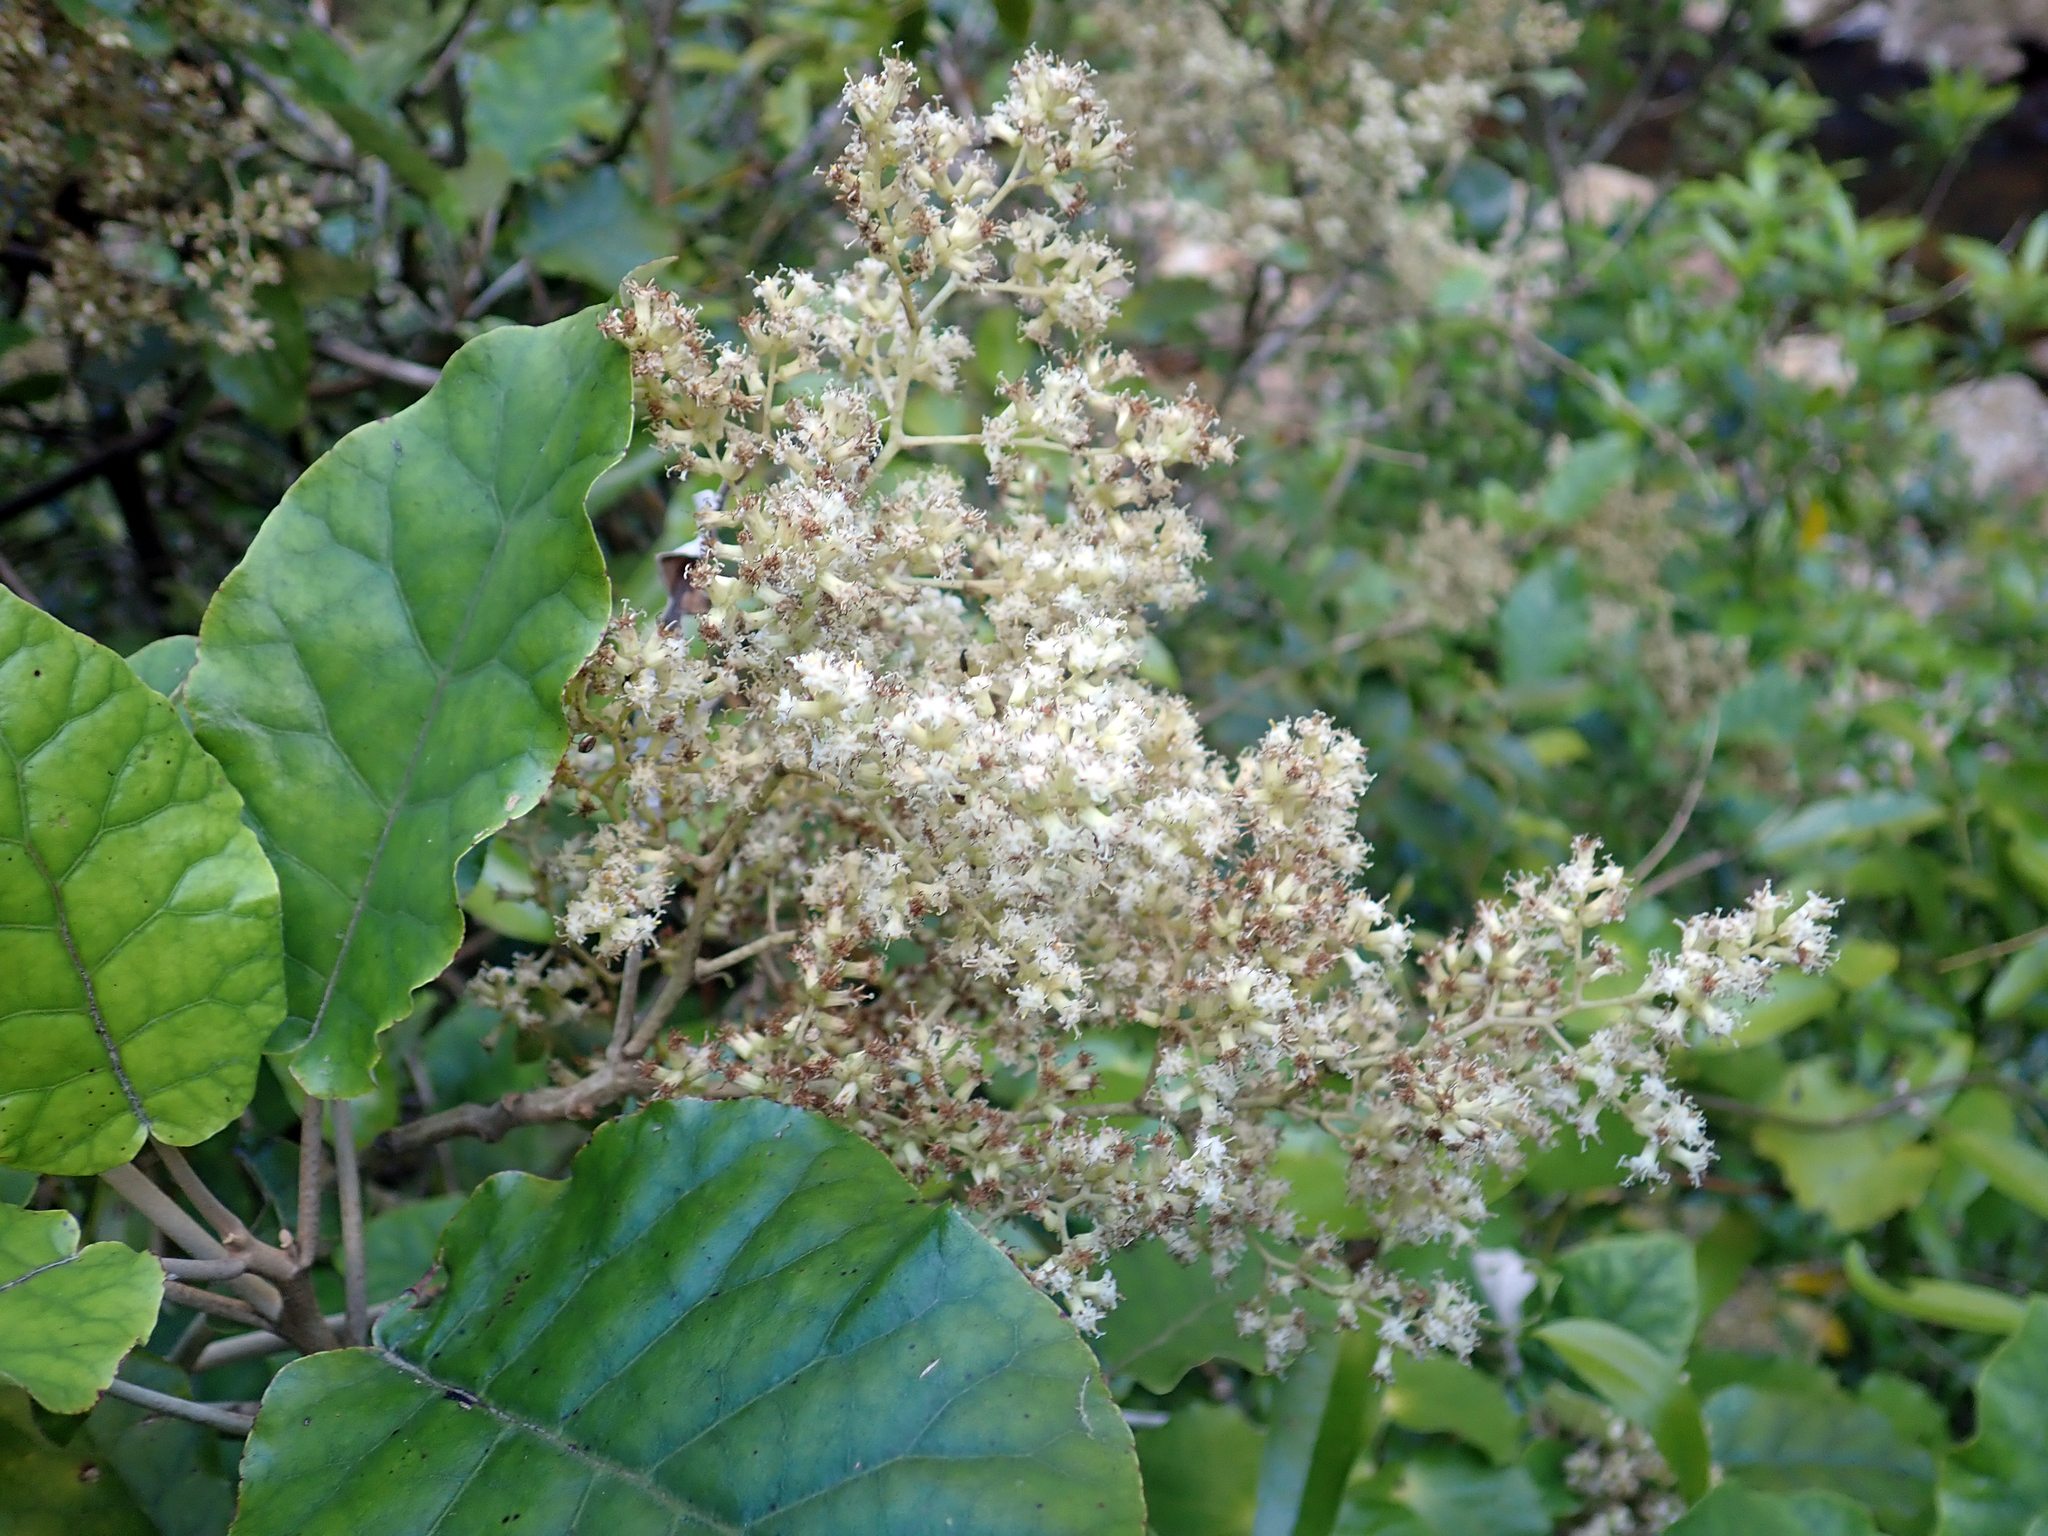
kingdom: Plantae
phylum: Tracheophyta
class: Magnoliopsida
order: Asterales
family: Asteraceae
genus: Brachyglottis
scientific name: Brachyglottis repanda
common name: Hedge ragwort
